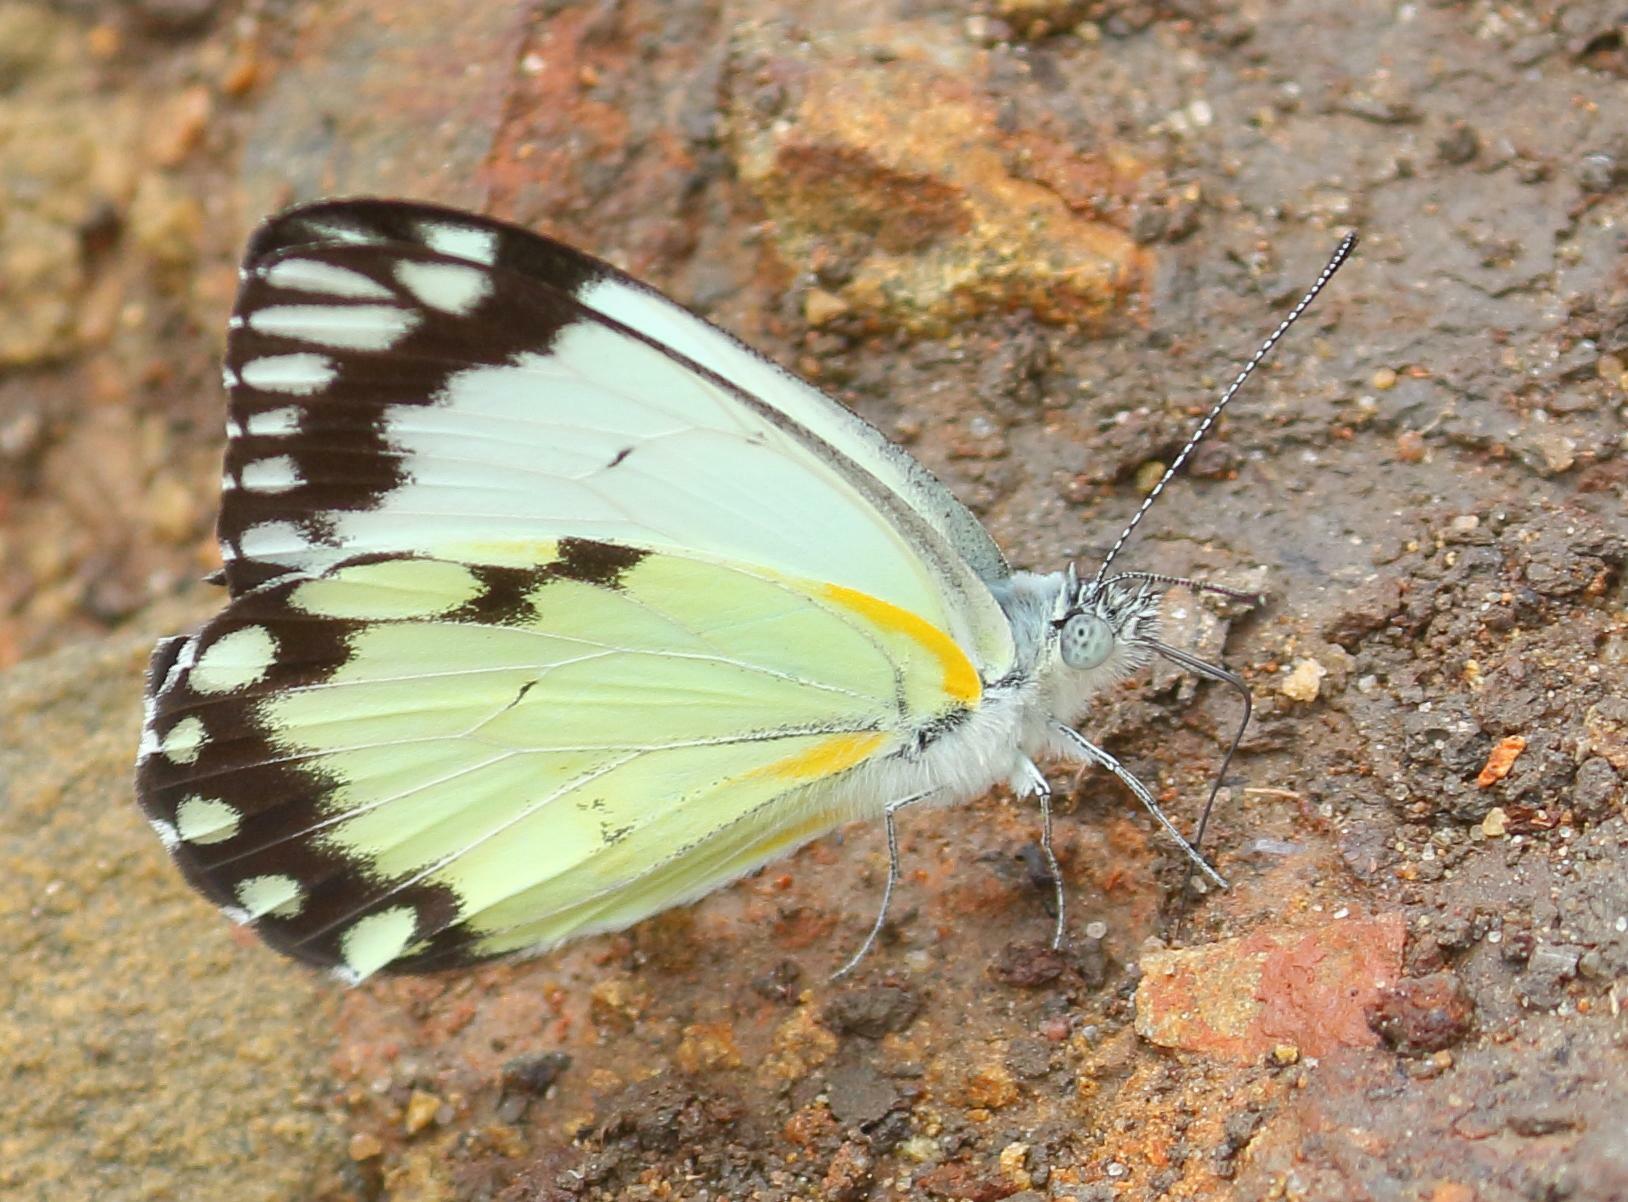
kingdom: Animalia
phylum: Arthropoda
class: Insecta
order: Lepidoptera
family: Pieridae
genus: Belenois
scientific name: Belenois creona
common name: African caper white
